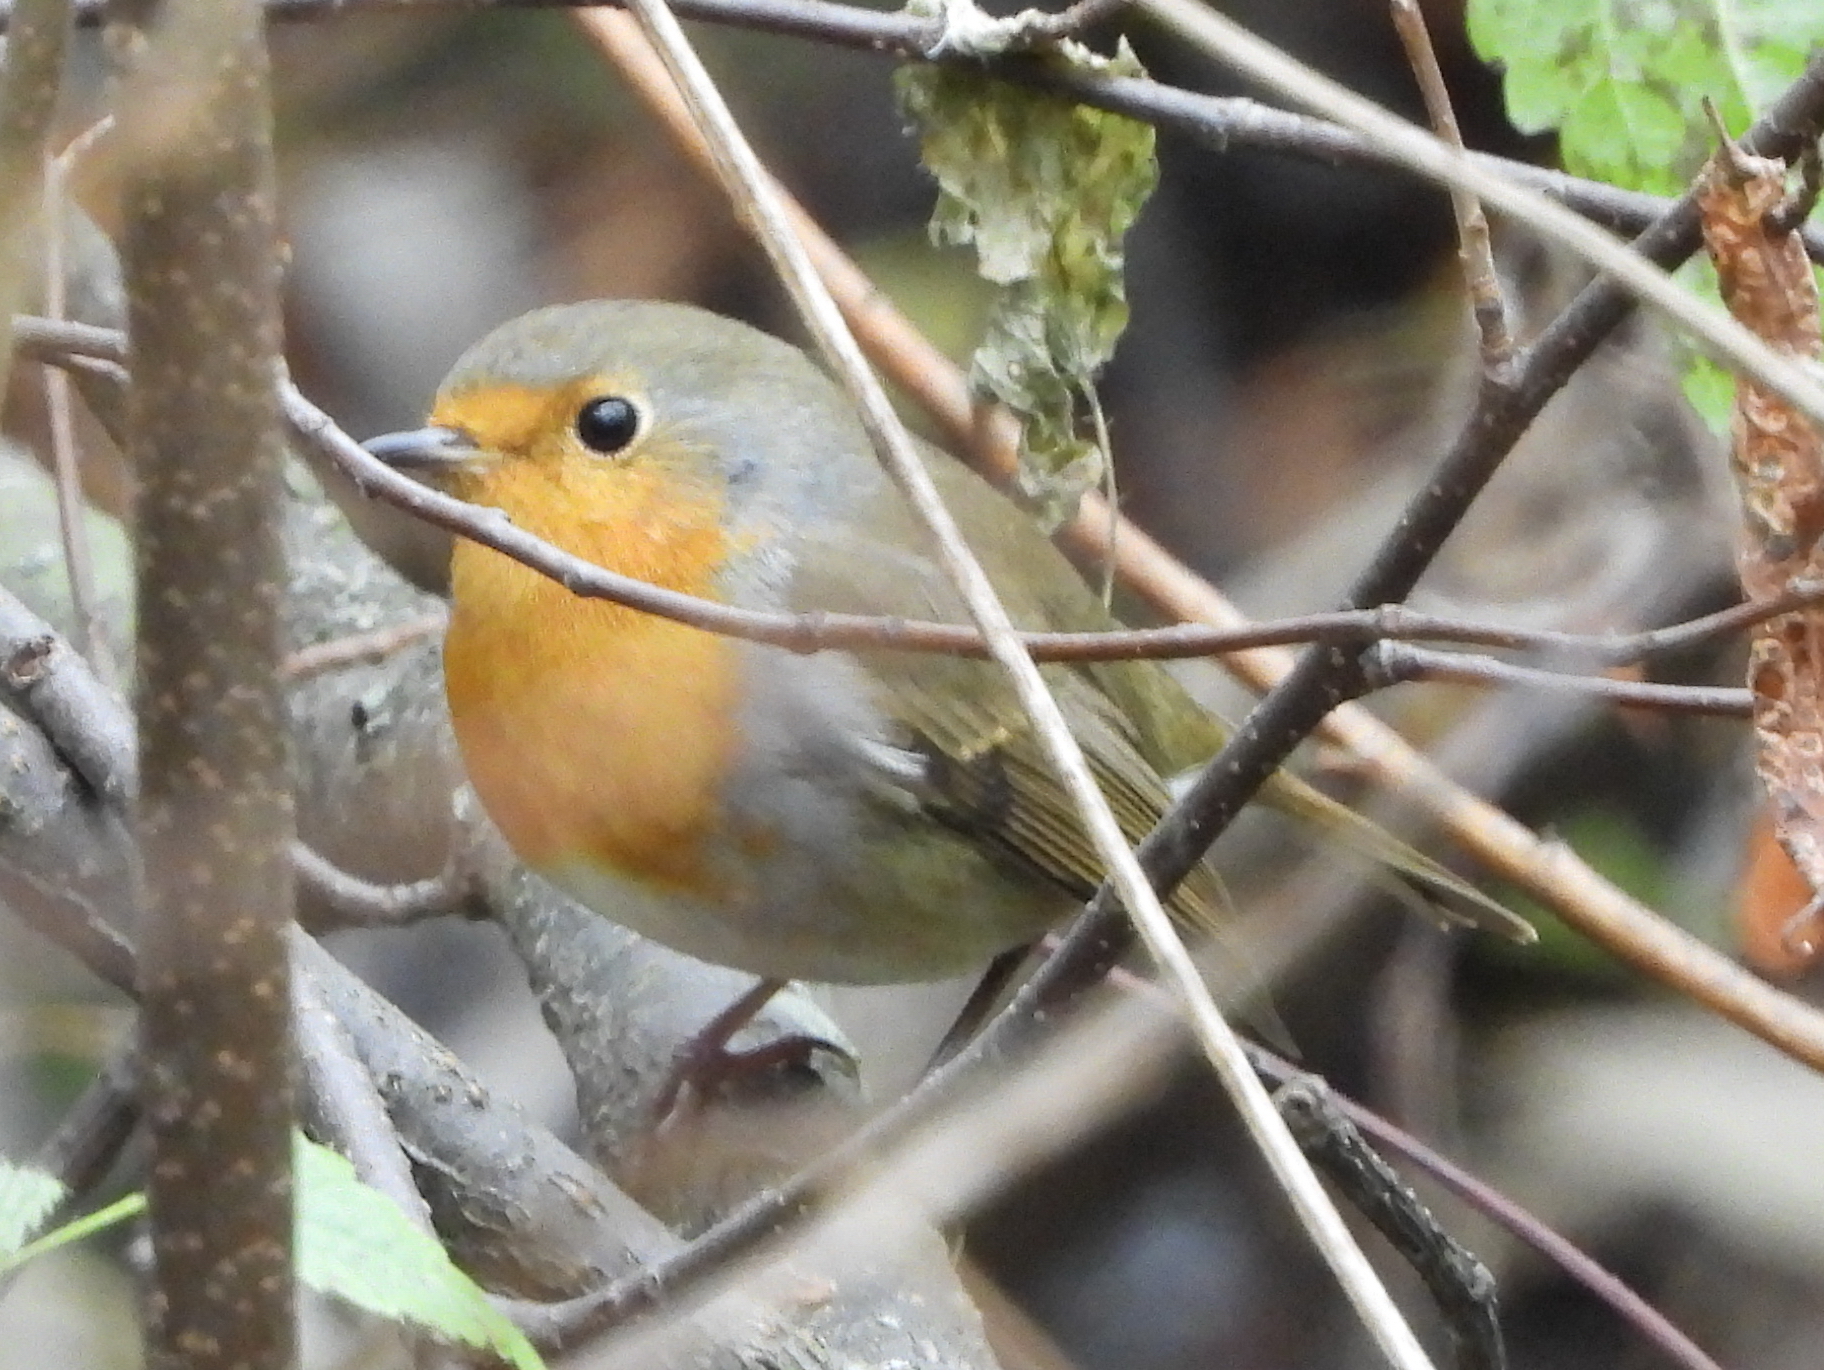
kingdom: Animalia
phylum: Chordata
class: Aves
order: Passeriformes
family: Muscicapidae
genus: Erithacus
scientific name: Erithacus rubecula
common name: European robin
